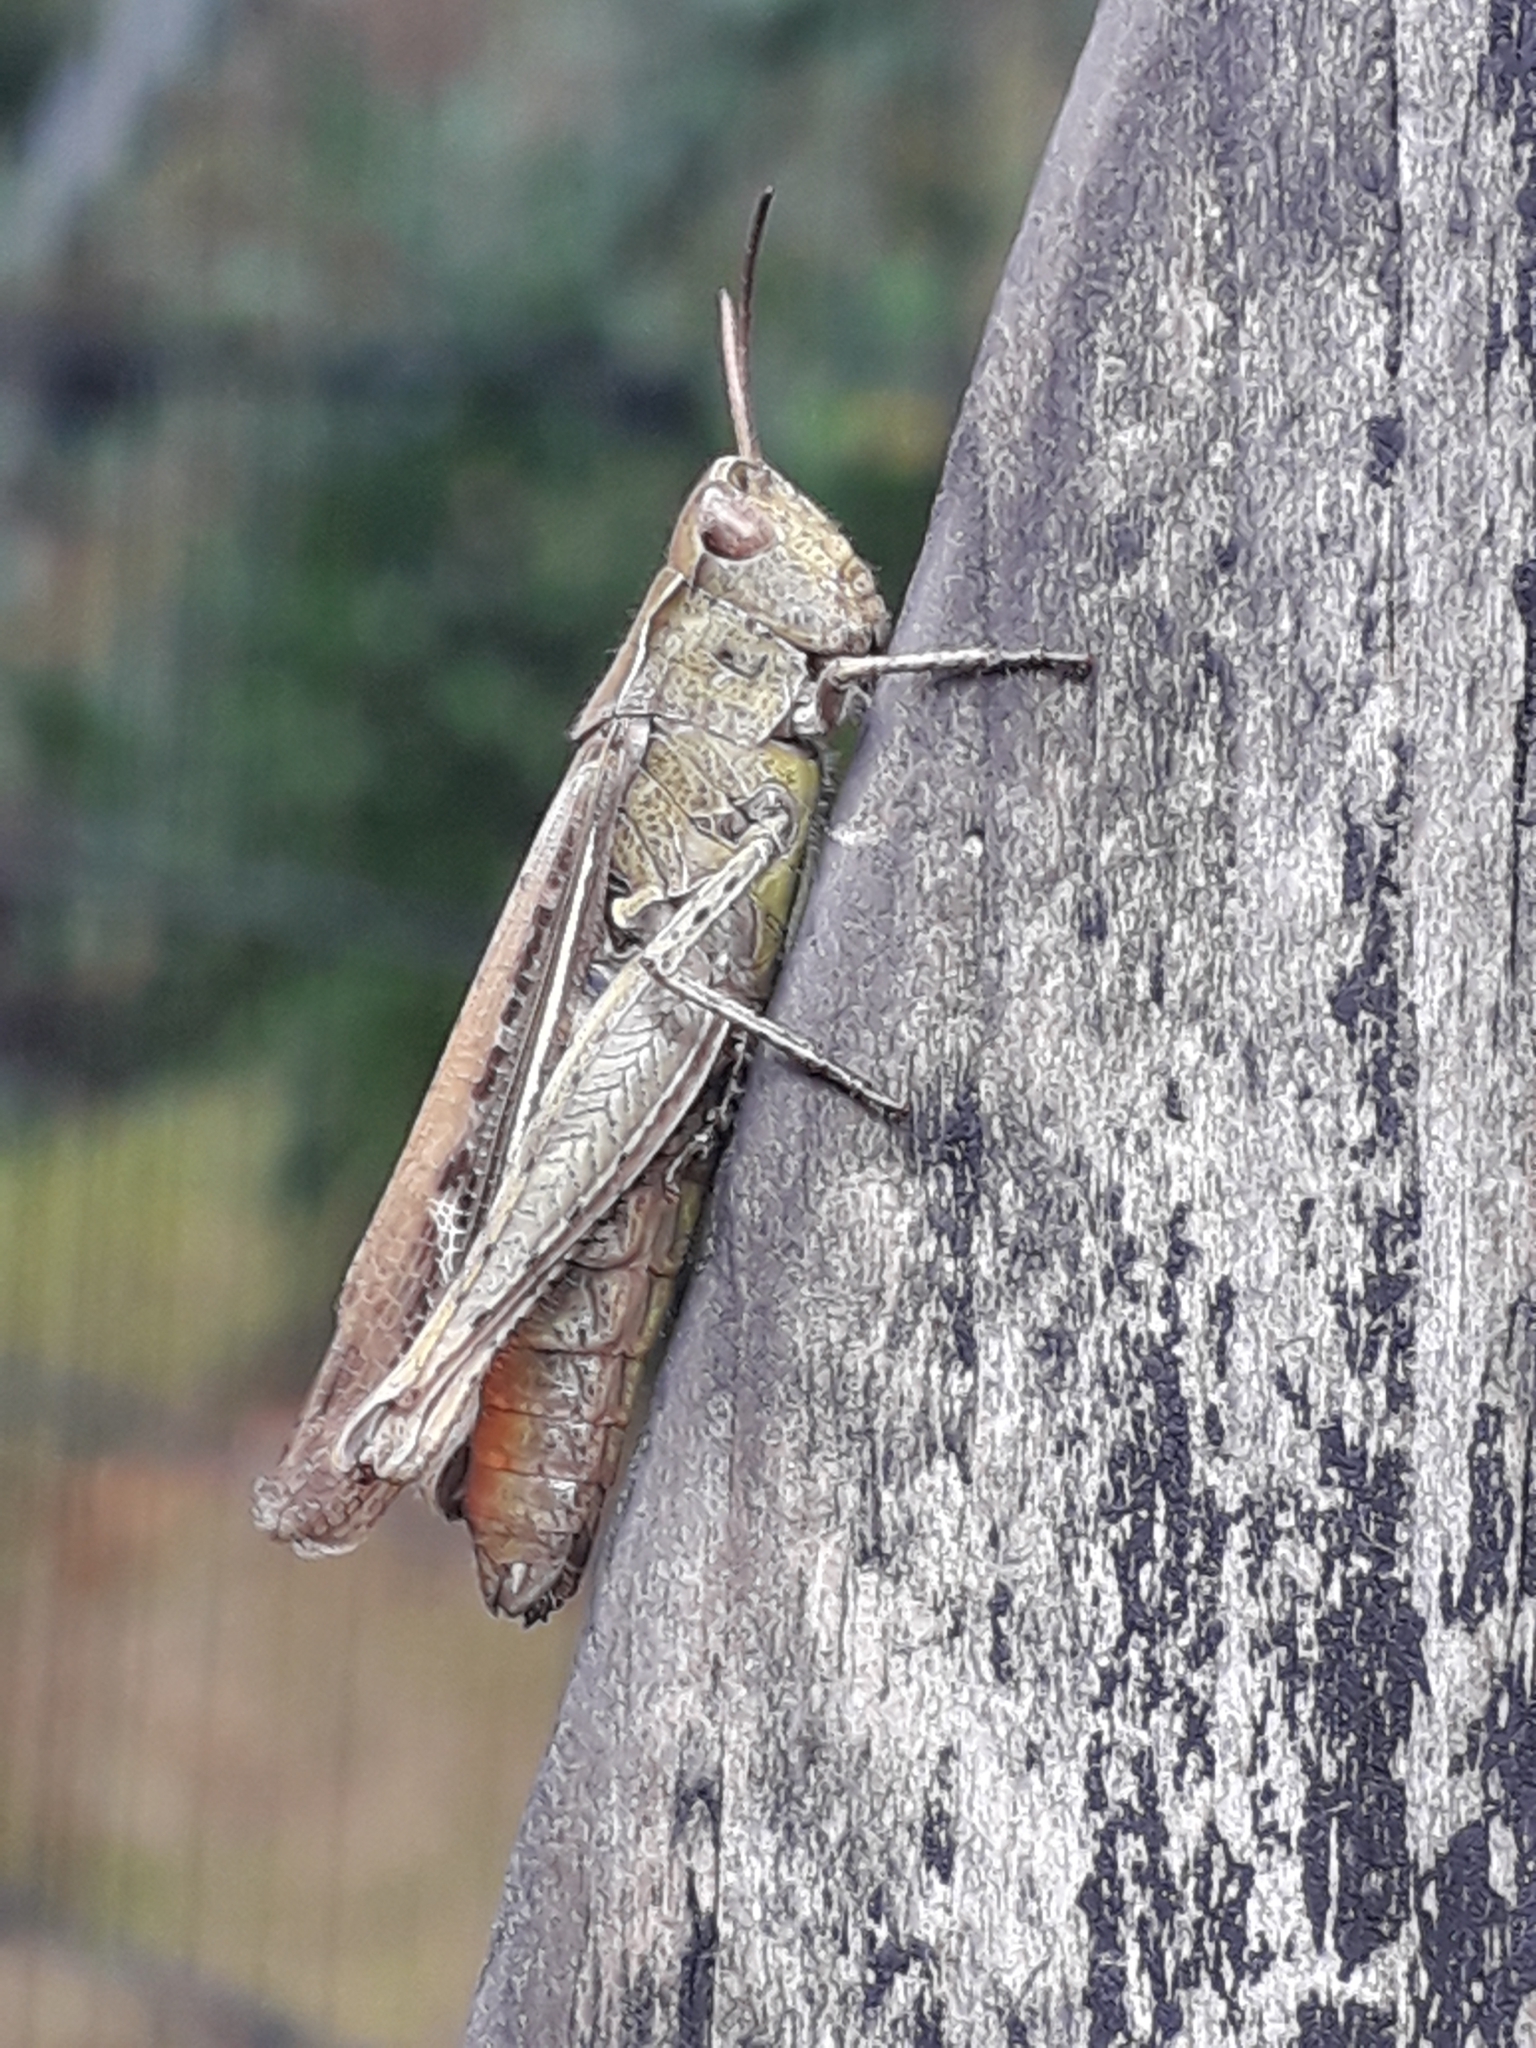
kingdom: Animalia
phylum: Arthropoda
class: Insecta
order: Orthoptera
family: Acrididae
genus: Chorthippus
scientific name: Chorthippus brunneus
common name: Field grasshopper
